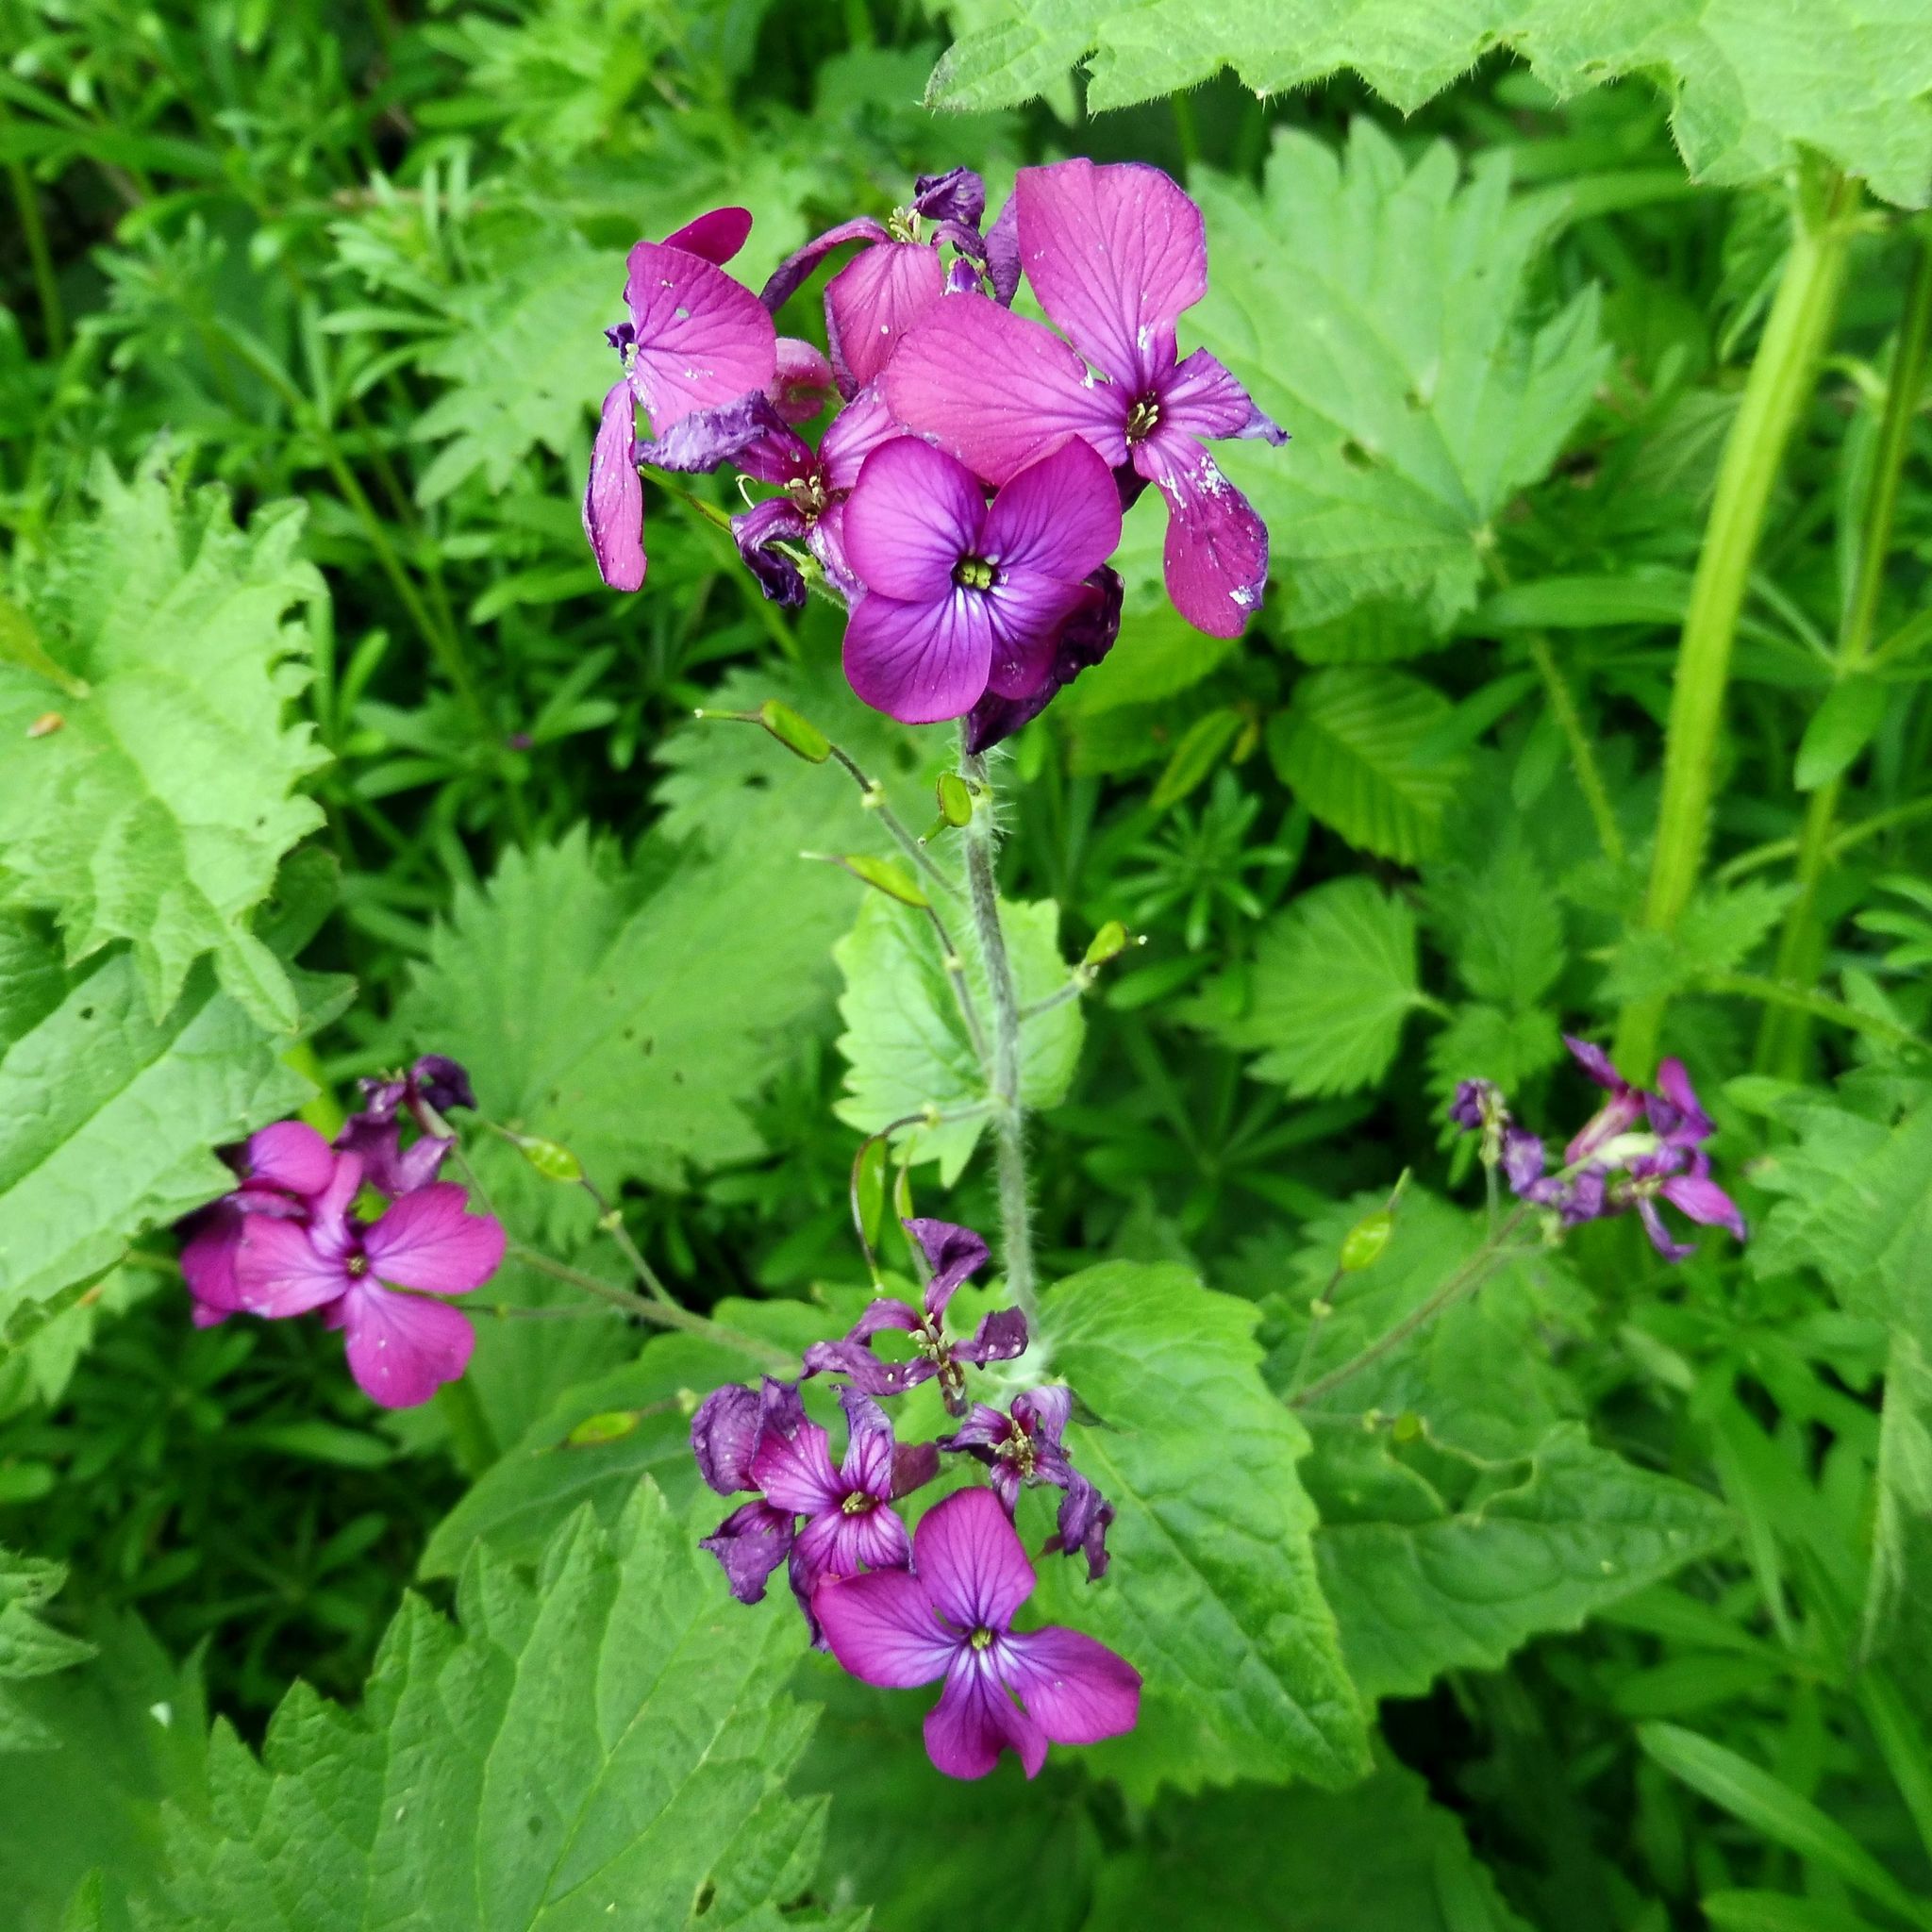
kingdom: Plantae
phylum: Tracheophyta
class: Magnoliopsida
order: Brassicales
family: Brassicaceae
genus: Lunaria
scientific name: Lunaria annua
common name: Honesty
